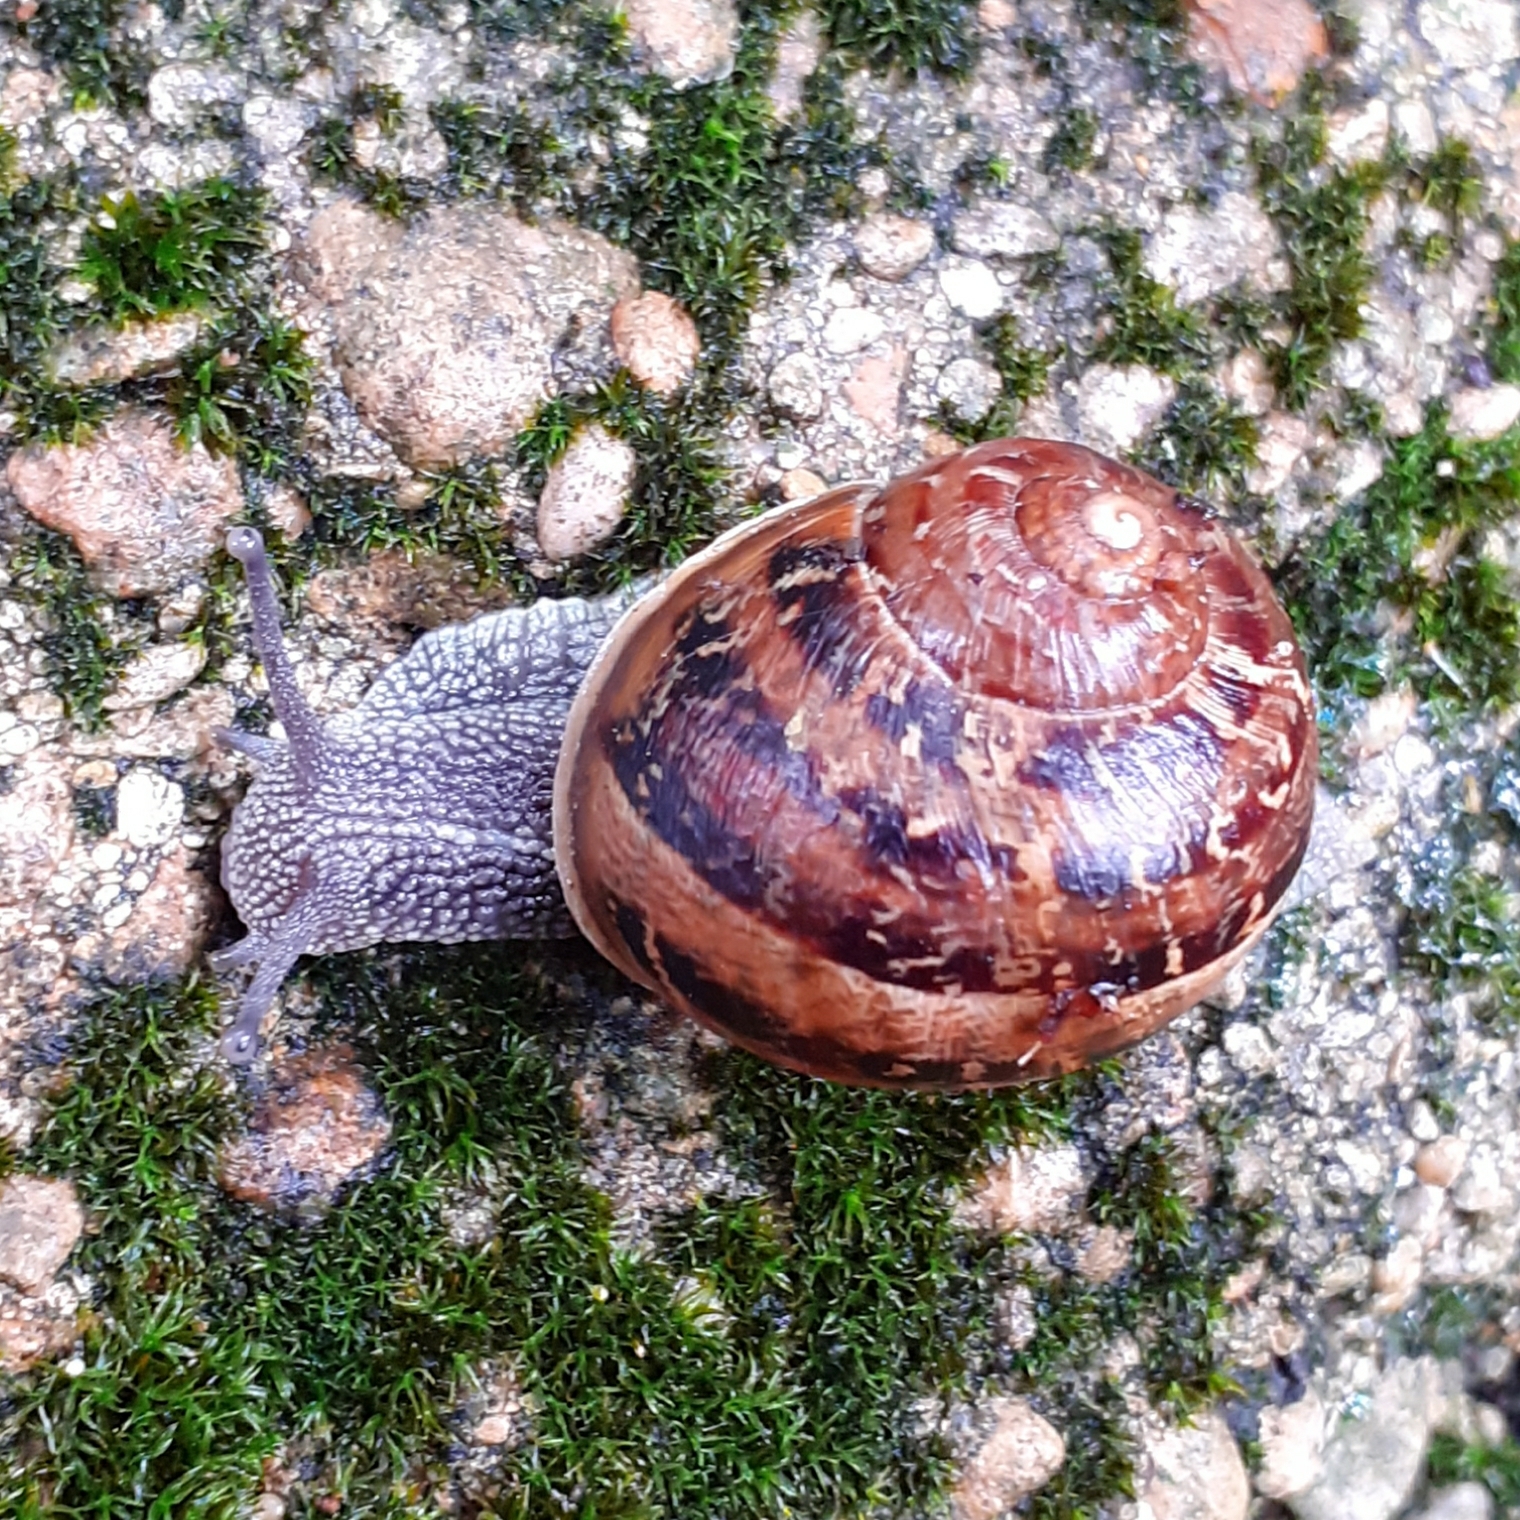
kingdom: Animalia
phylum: Mollusca
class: Gastropoda
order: Stylommatophora
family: Helicidae
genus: Cornu
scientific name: Cornu aspersum
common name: Brown garden snail
